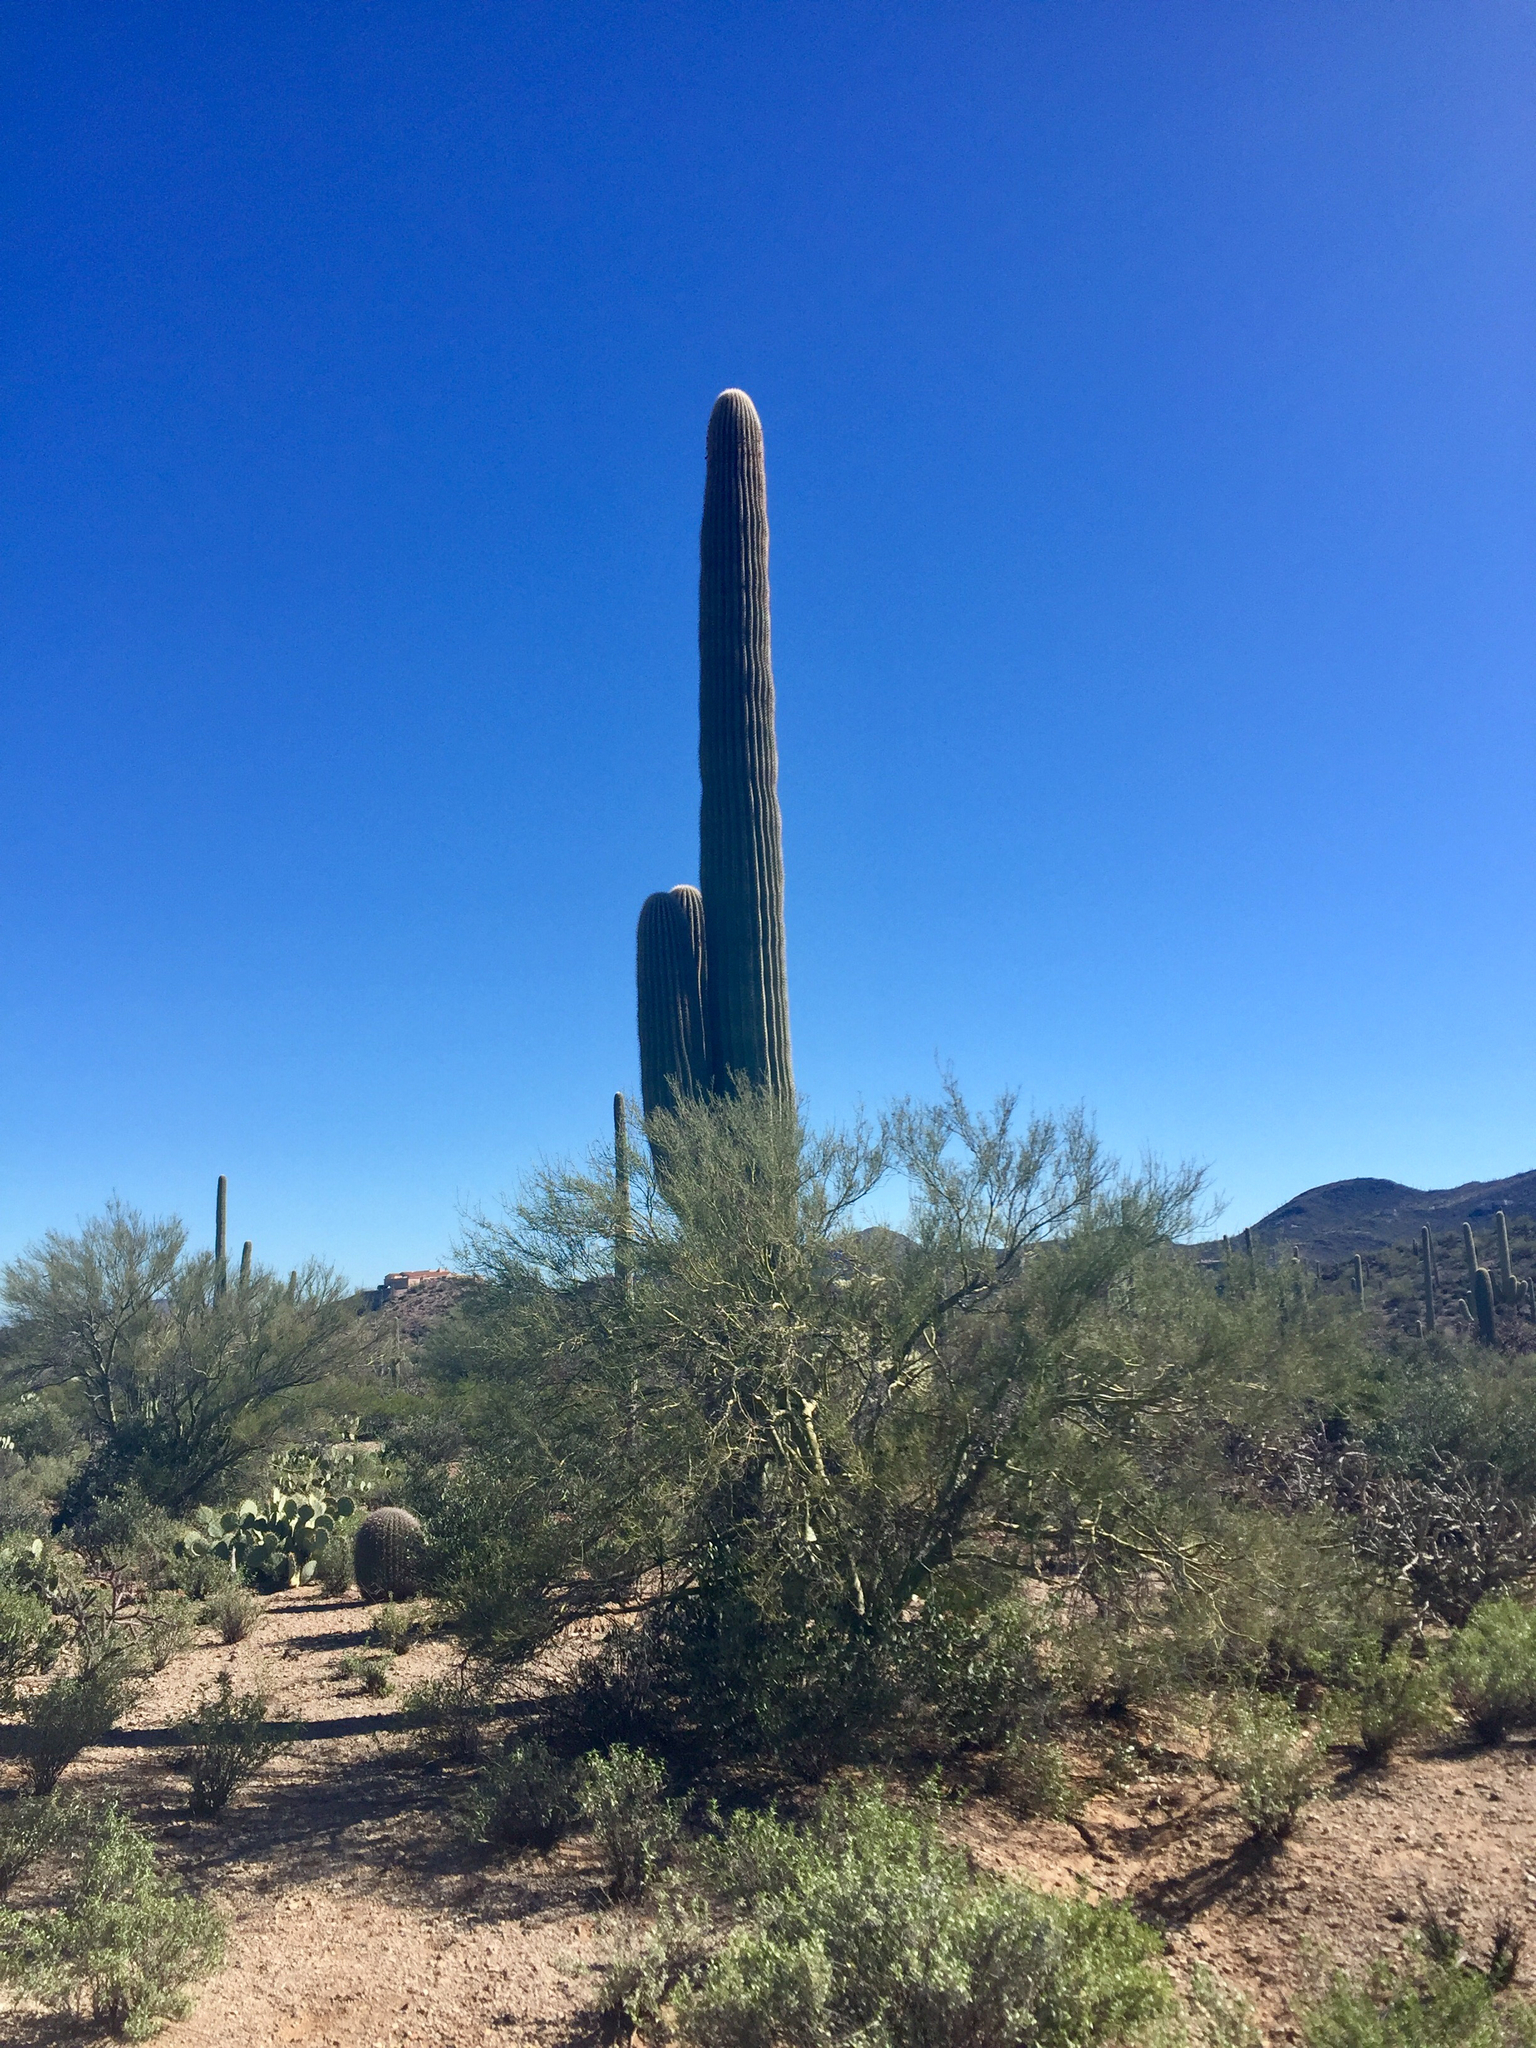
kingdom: Plantae
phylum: Tracheophyta
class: Magnoliopsida
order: Fabales
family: Fabaceae
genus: Parkinsonia
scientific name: Parkinsonia microphylla
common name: Yellow paloverde
